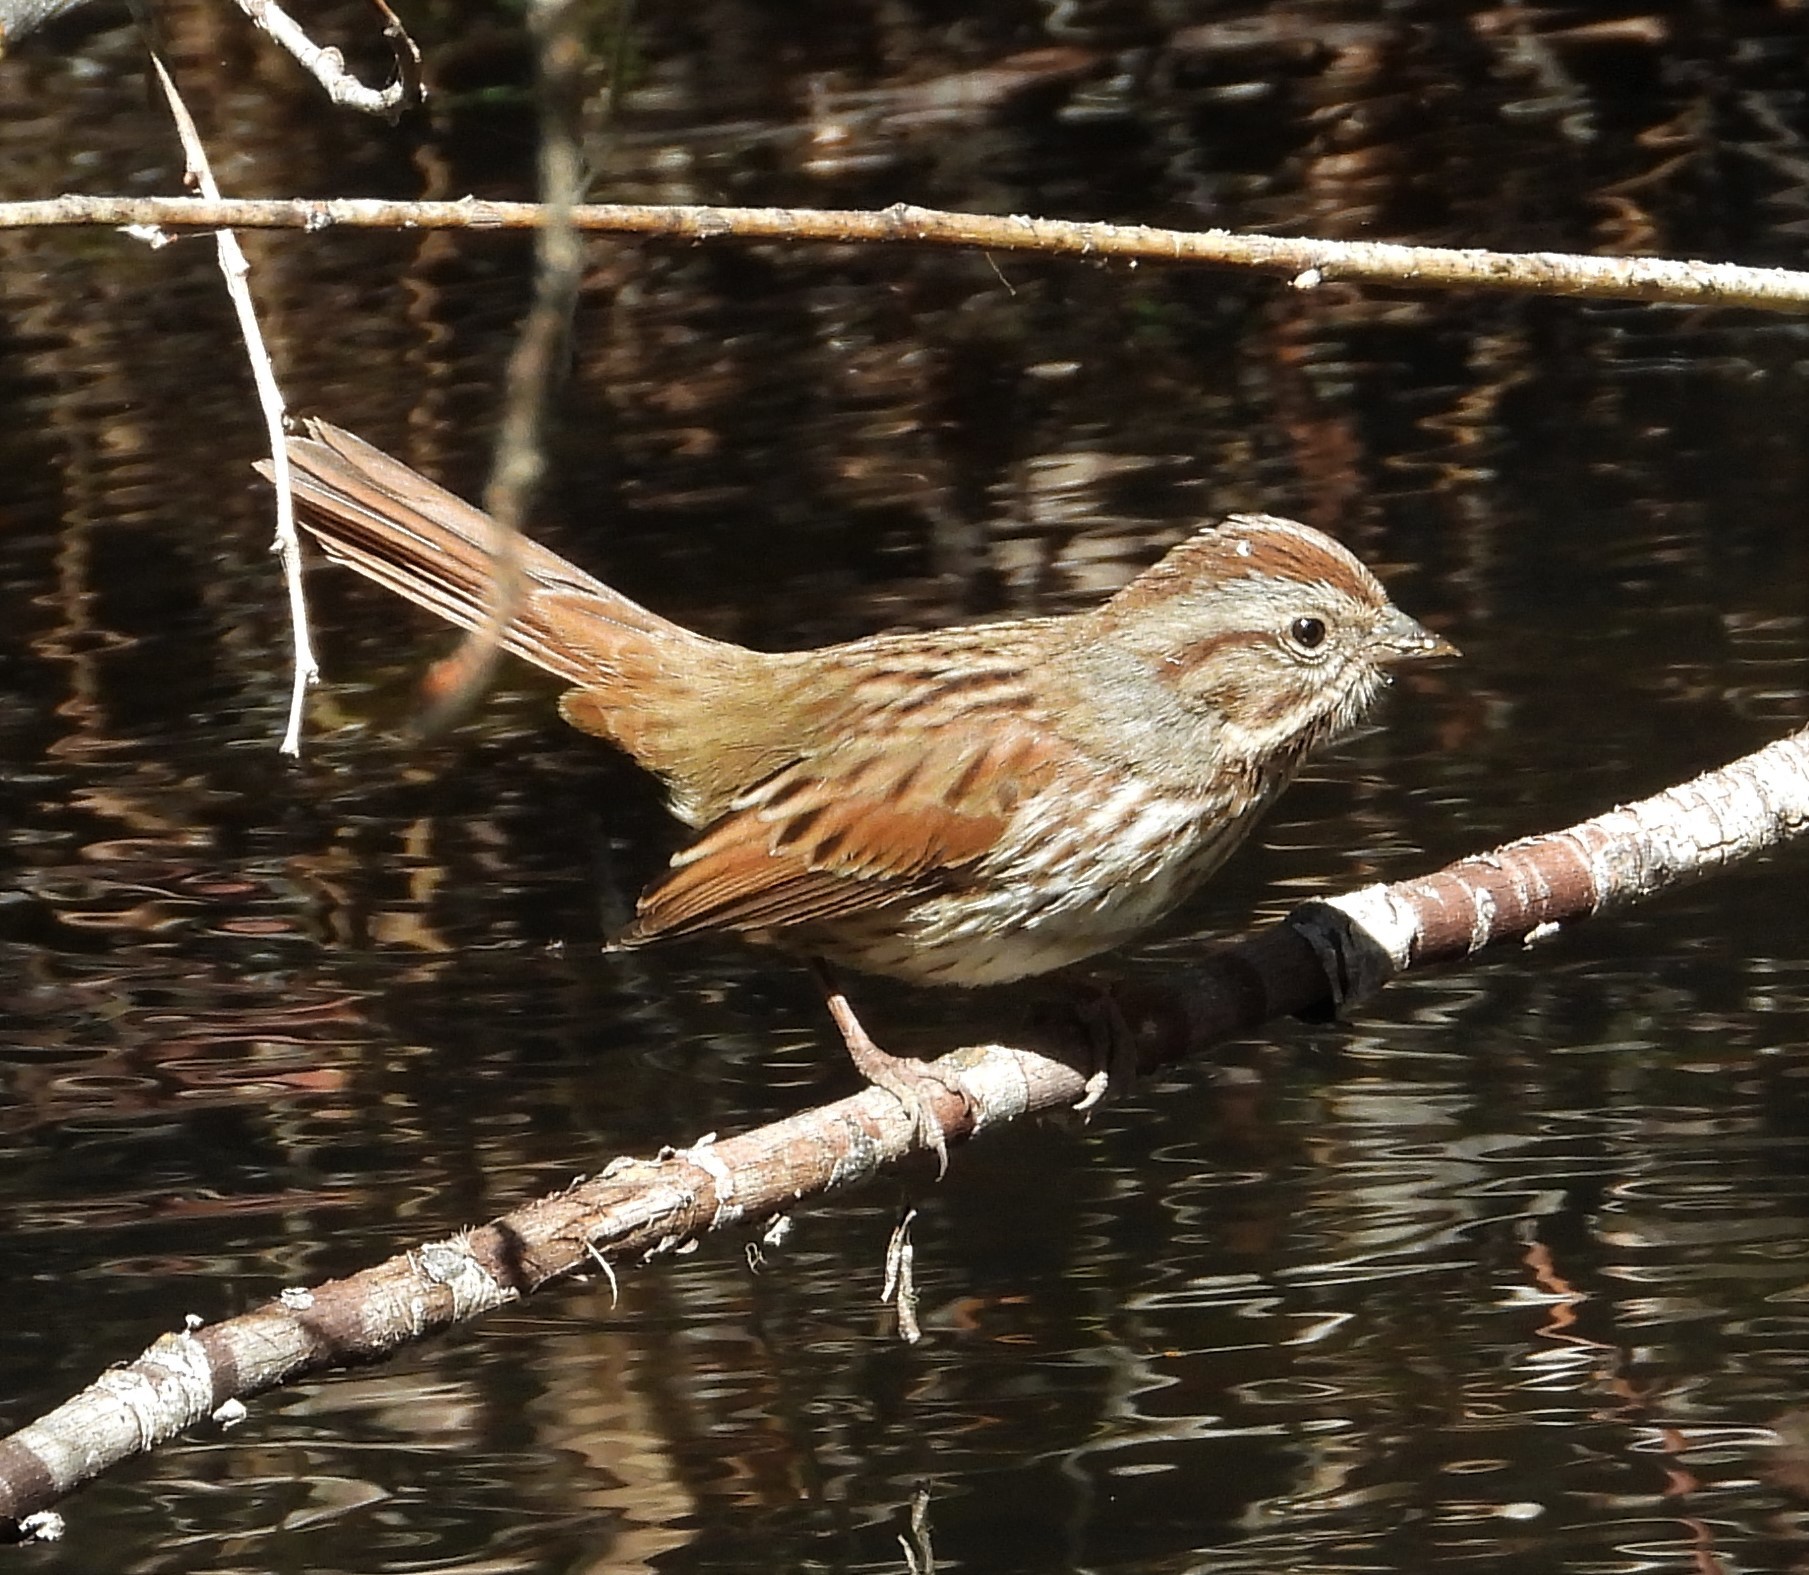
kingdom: Animalia
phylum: Chordata
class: Aves
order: Passeriformes
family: Passerellidae
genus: Melospiza
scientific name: Melospiza melodia
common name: Song sparrow
